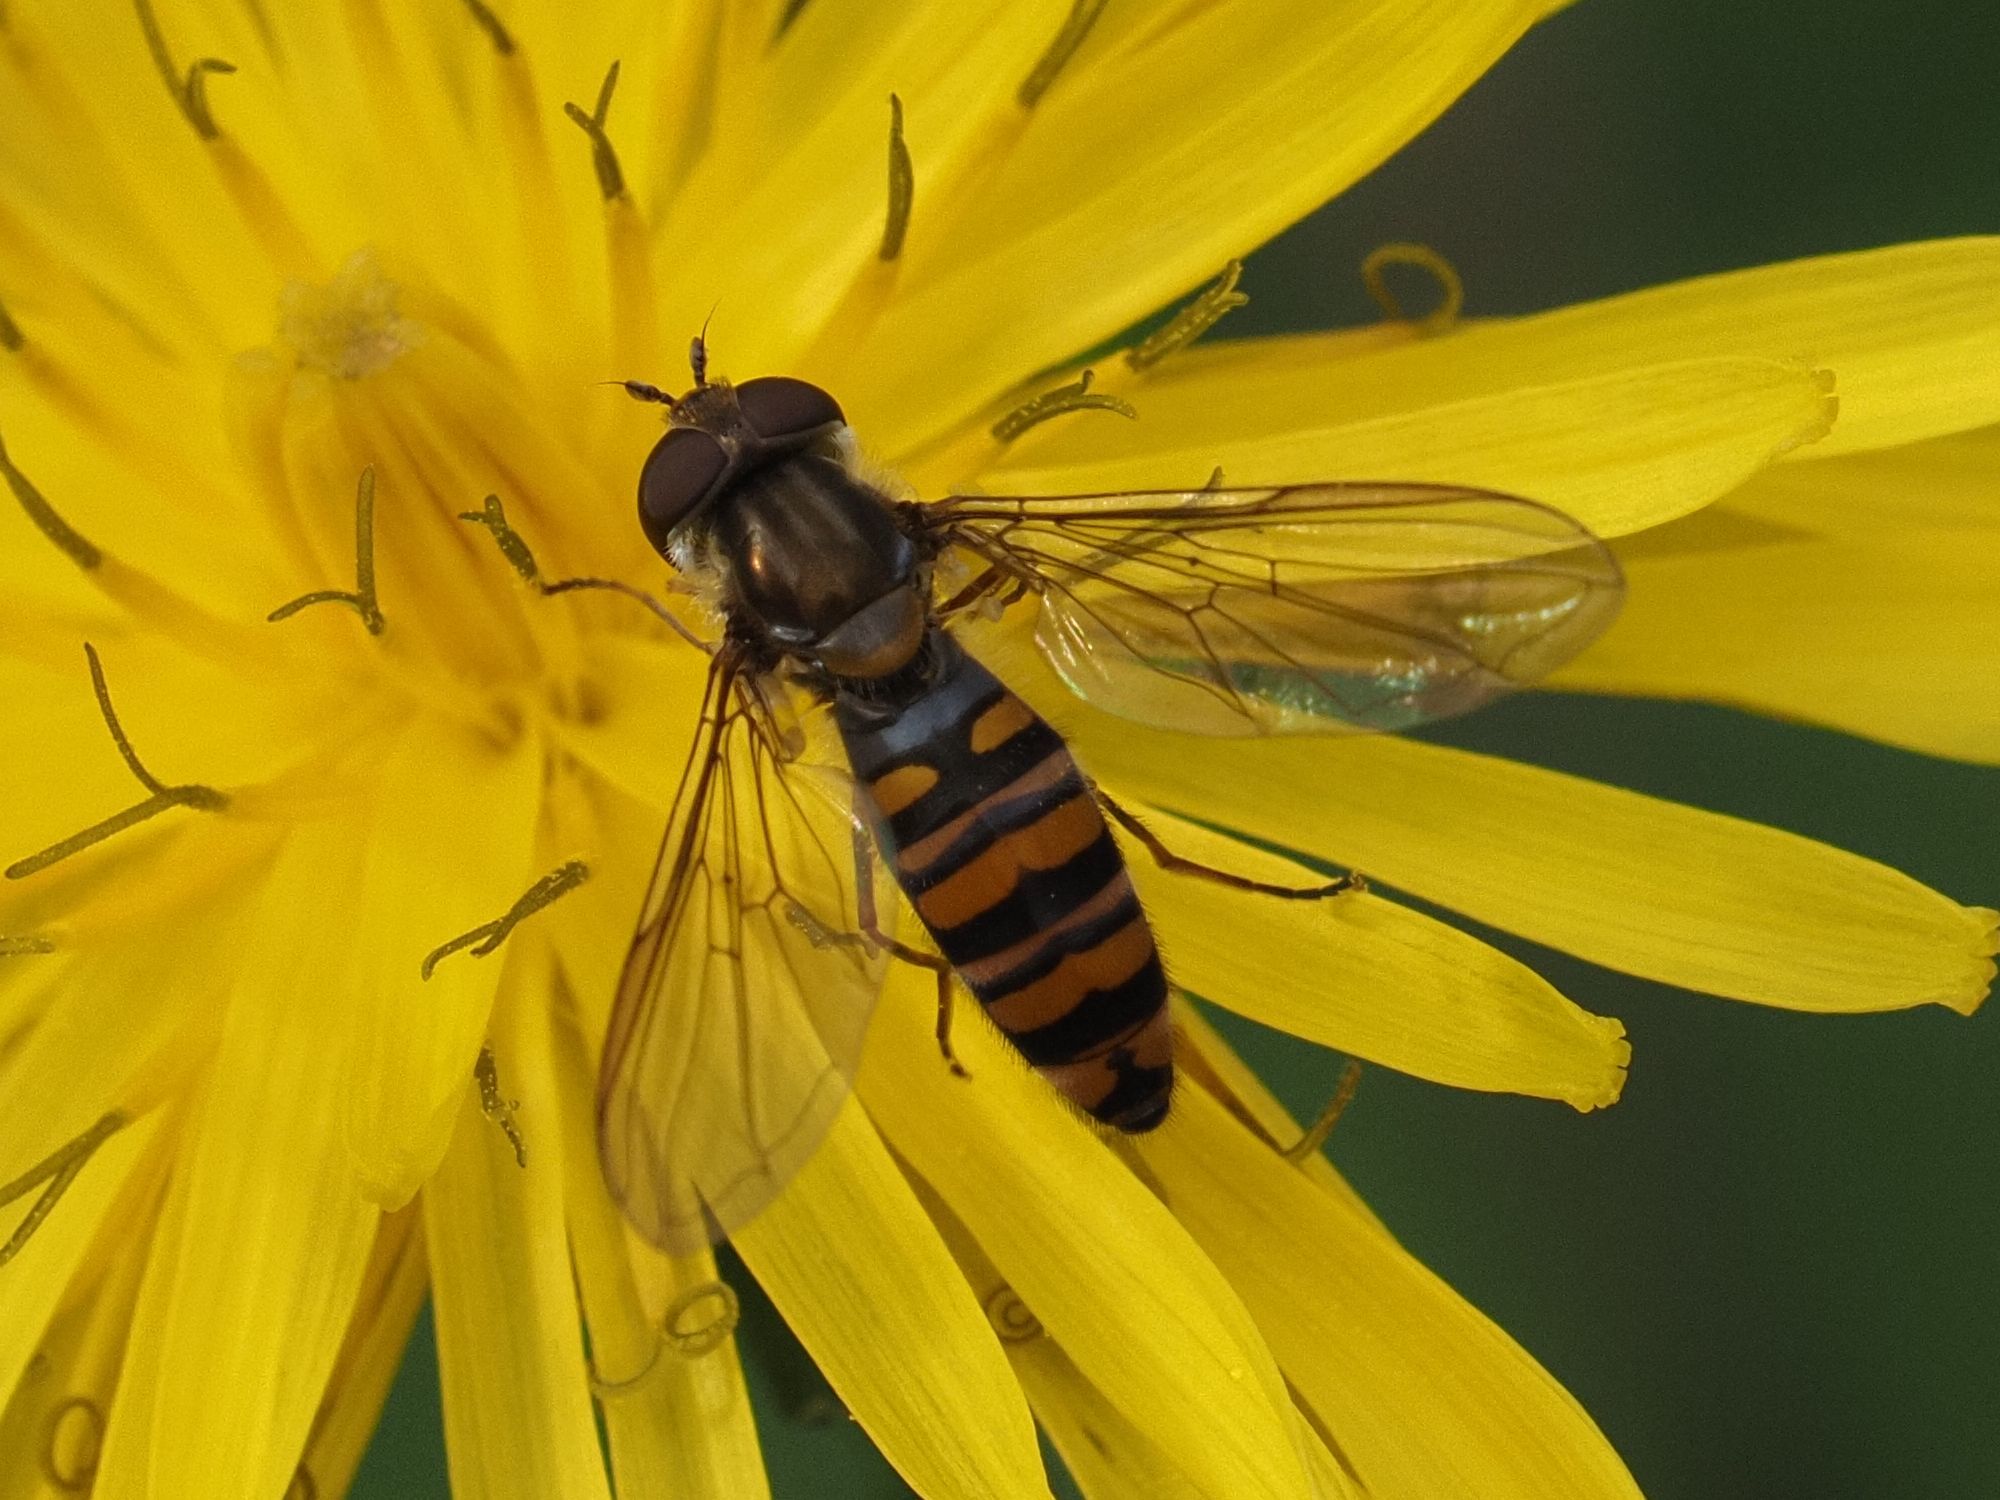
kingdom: Animalia
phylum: Arthropoda
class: Insecta
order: Diptera
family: Syrphidae
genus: Episyrphus
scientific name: Episyrphus balteatus
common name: Marmalade hoverfly
